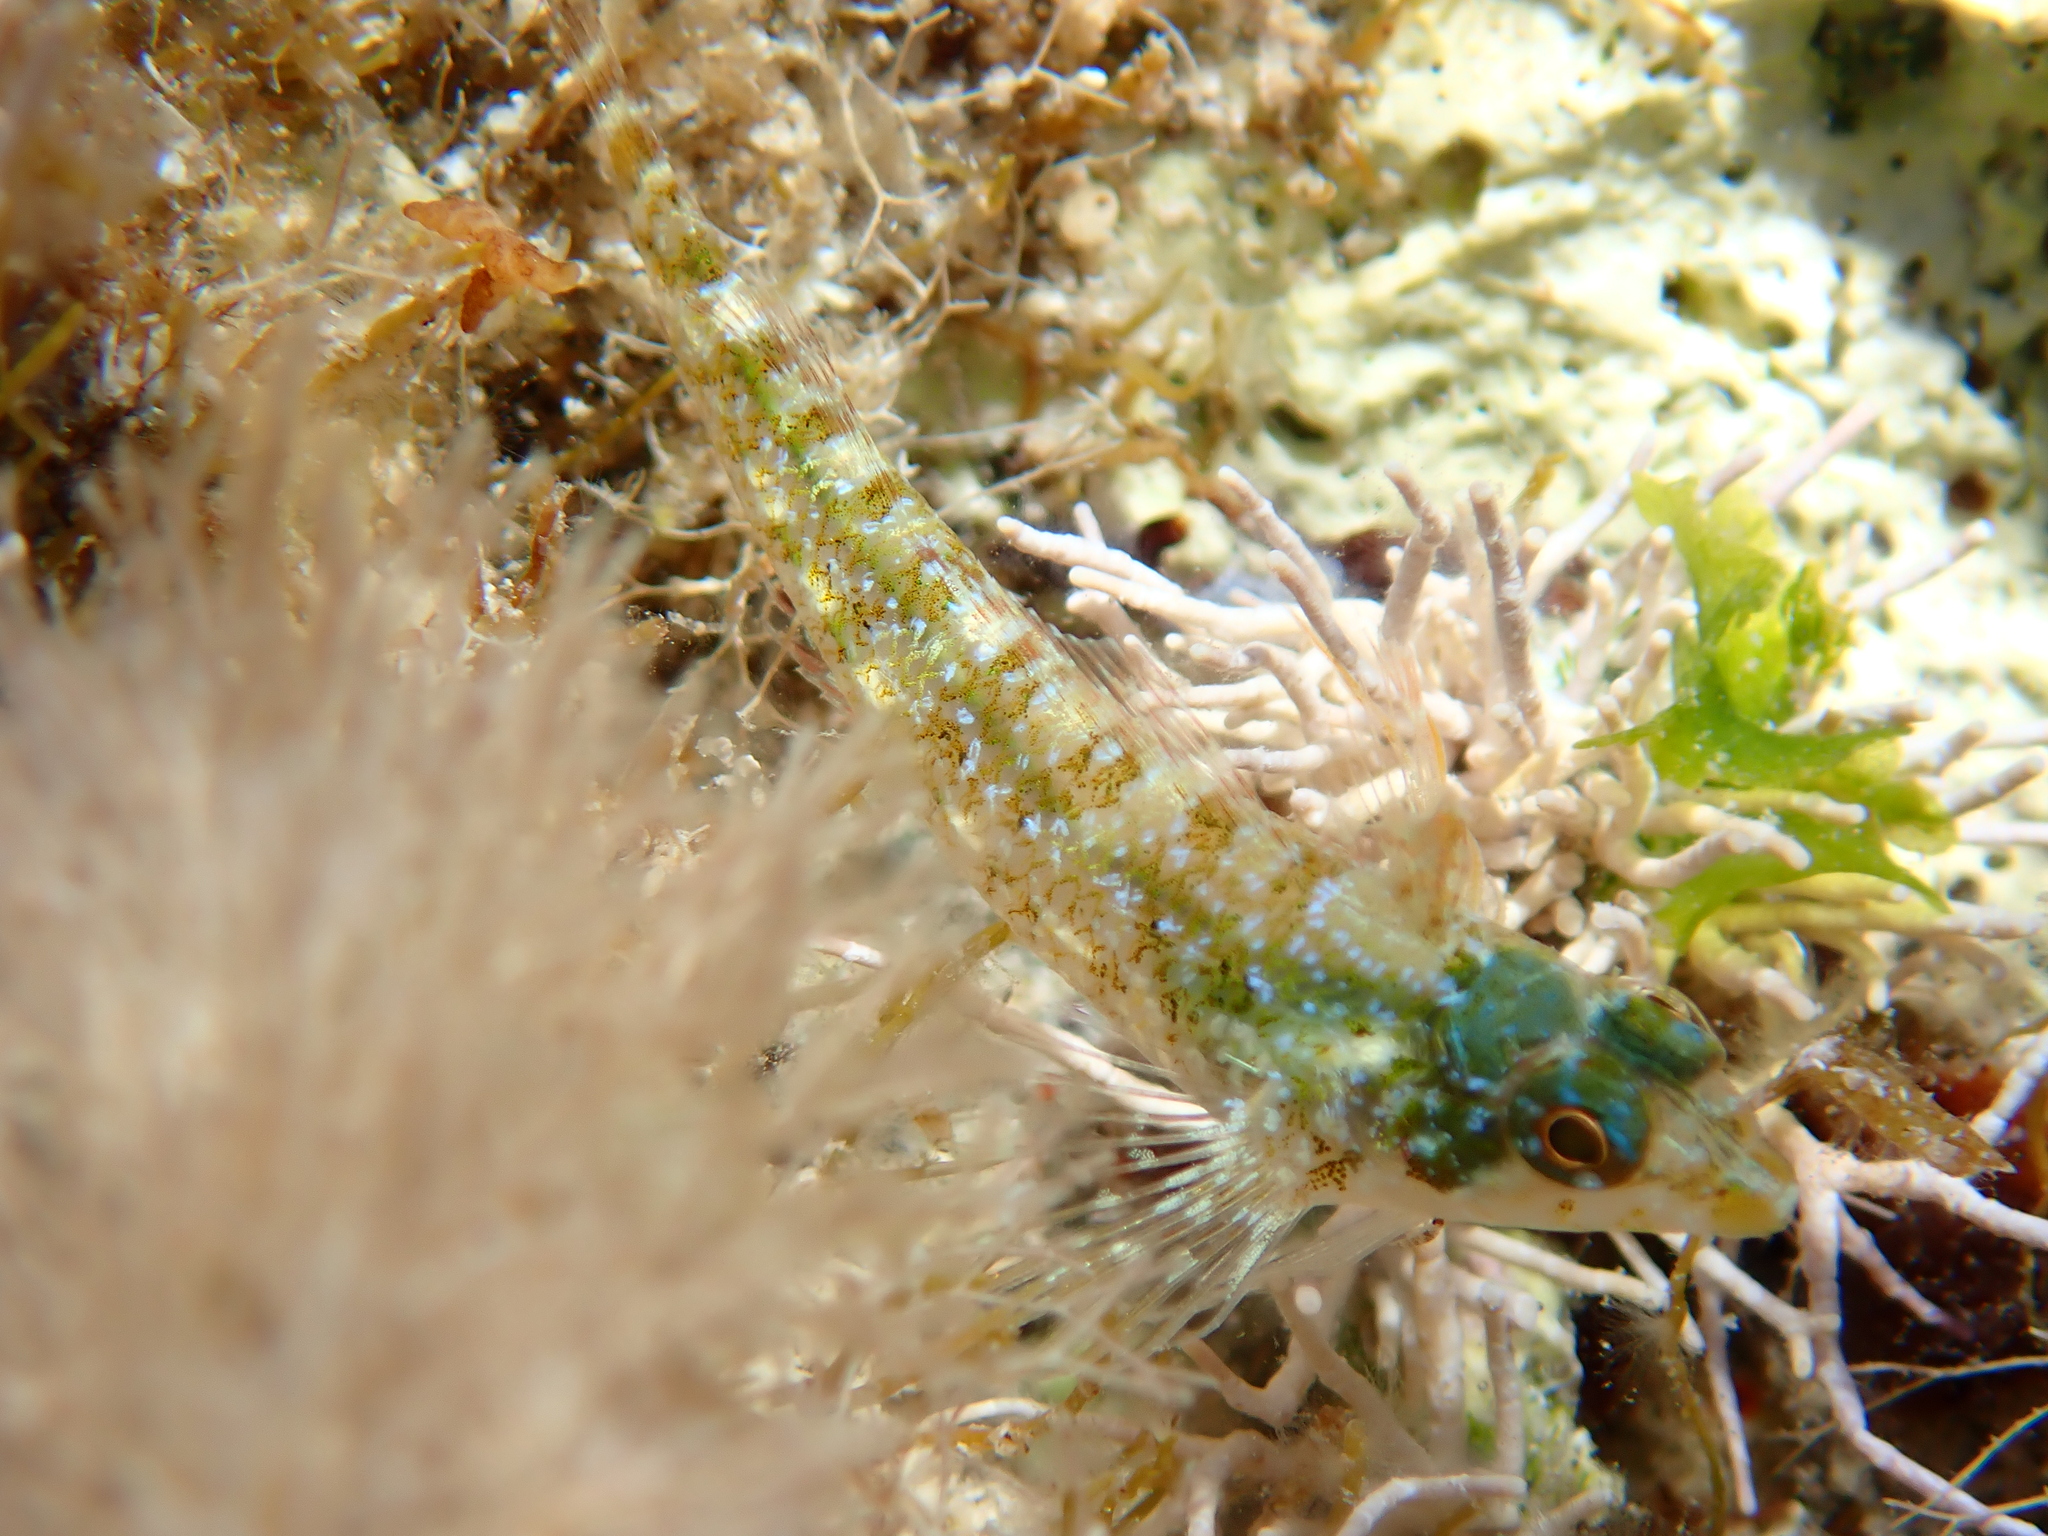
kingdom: Animalia
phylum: Chordata
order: Perciformes
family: Tripterygiidae
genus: Tripterygion
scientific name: Tripterygion tripteronotum
